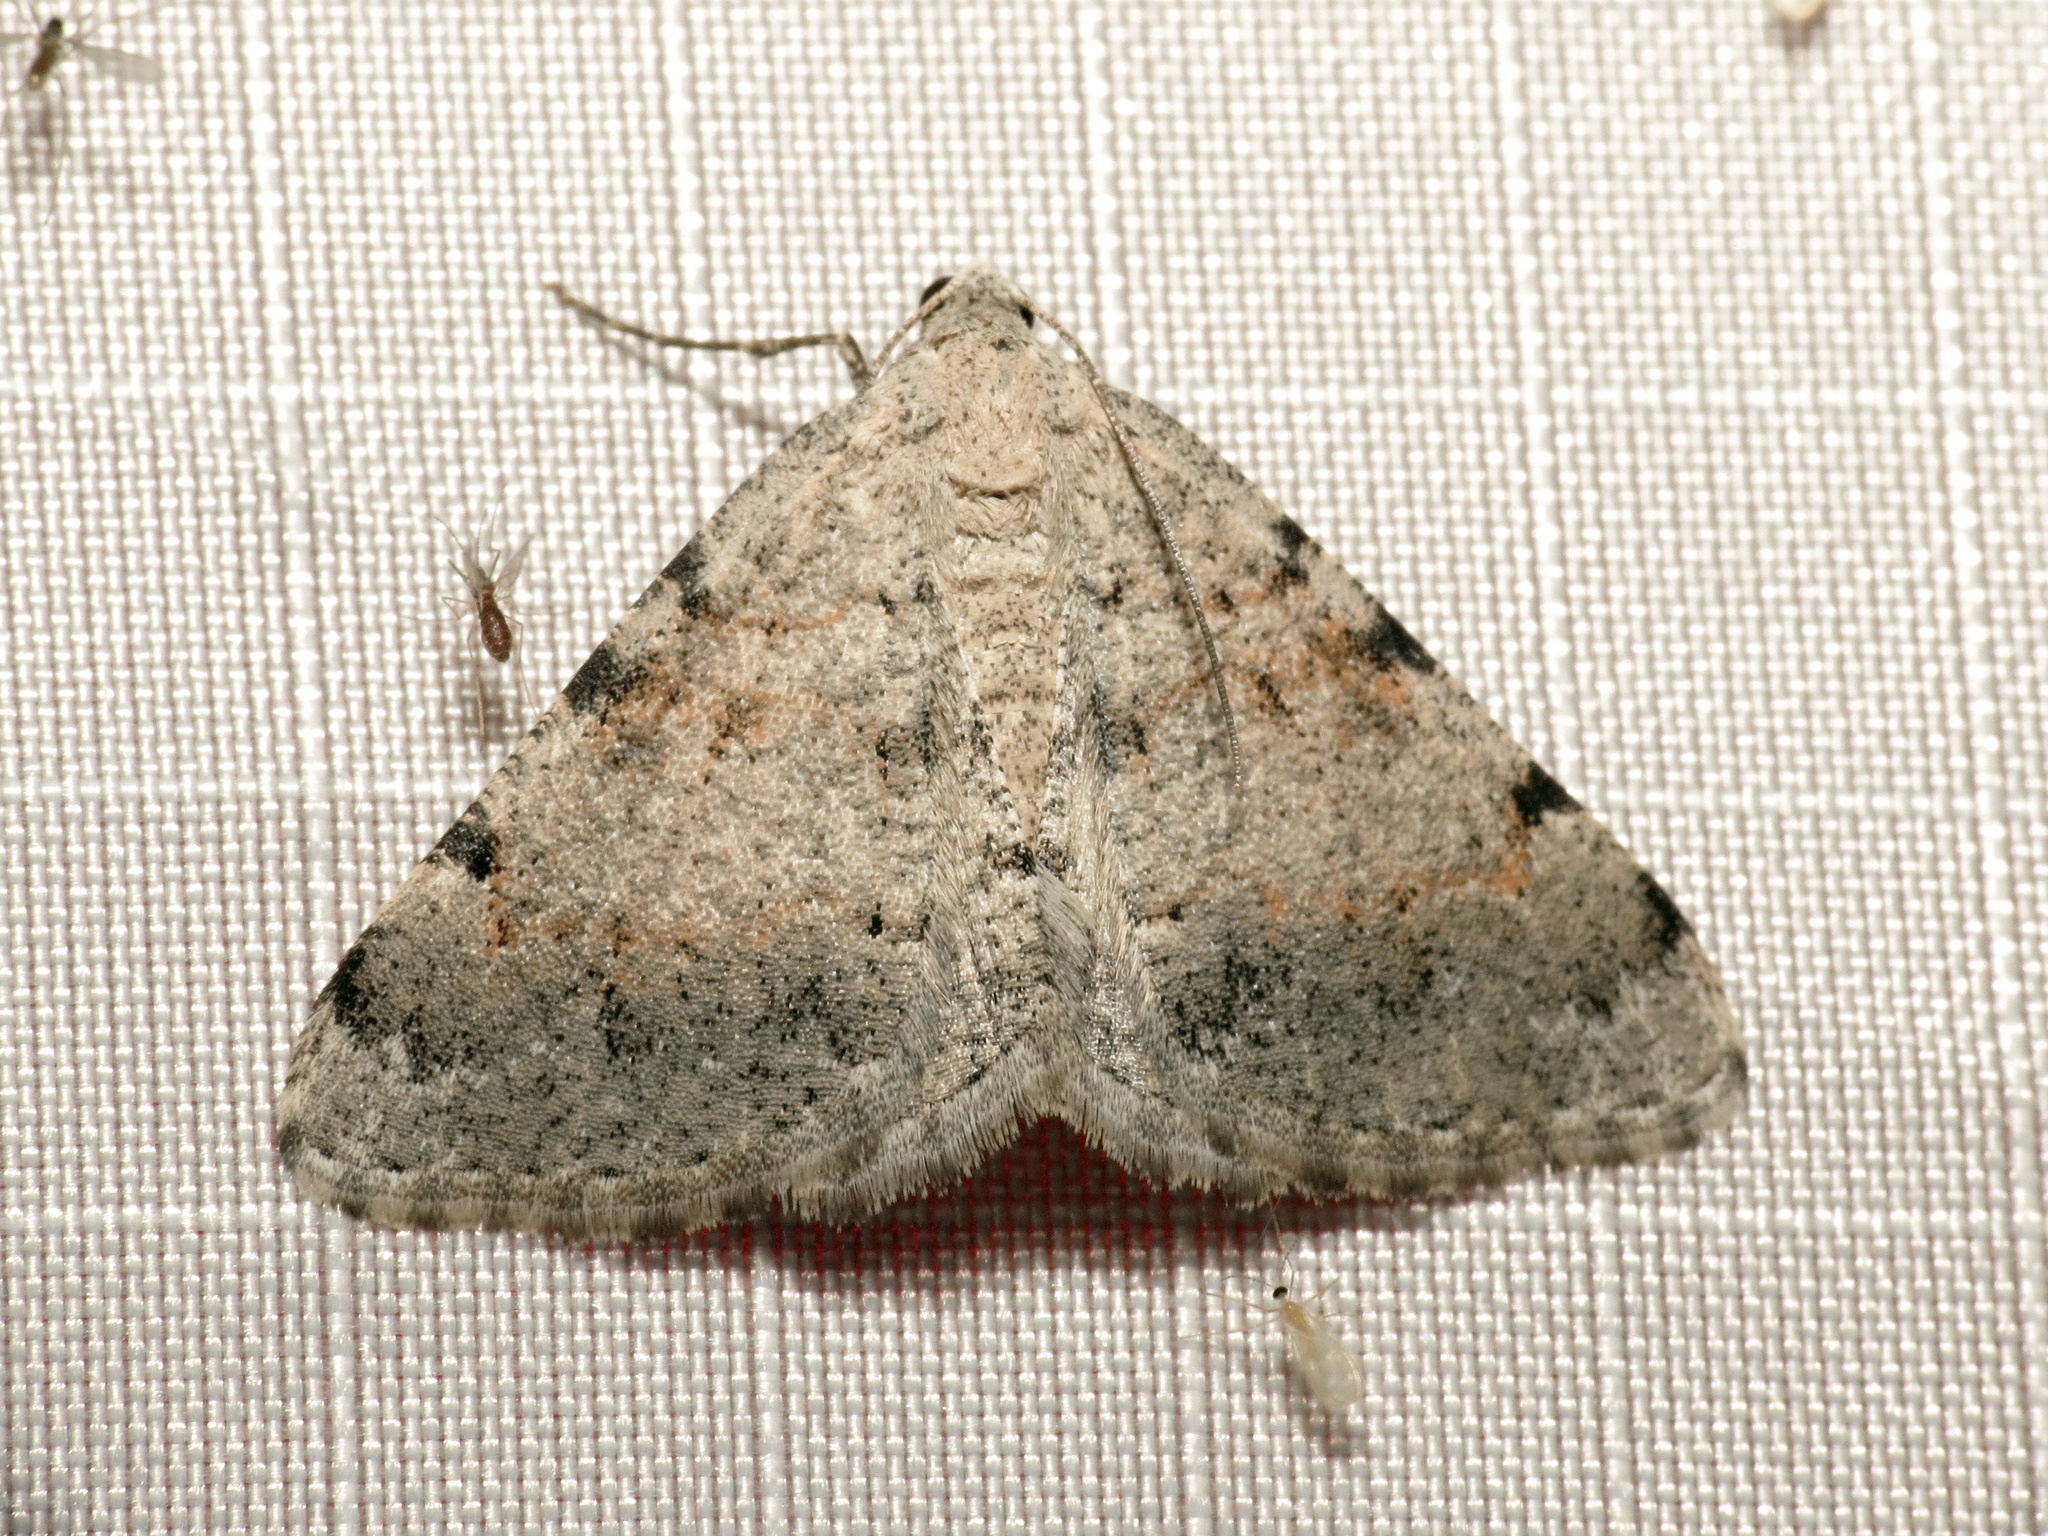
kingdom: Animalia
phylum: Arthropoda
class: Insecta
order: Lepidoptera
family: Geometridae
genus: Digrammia
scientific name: Digrammia colorata
